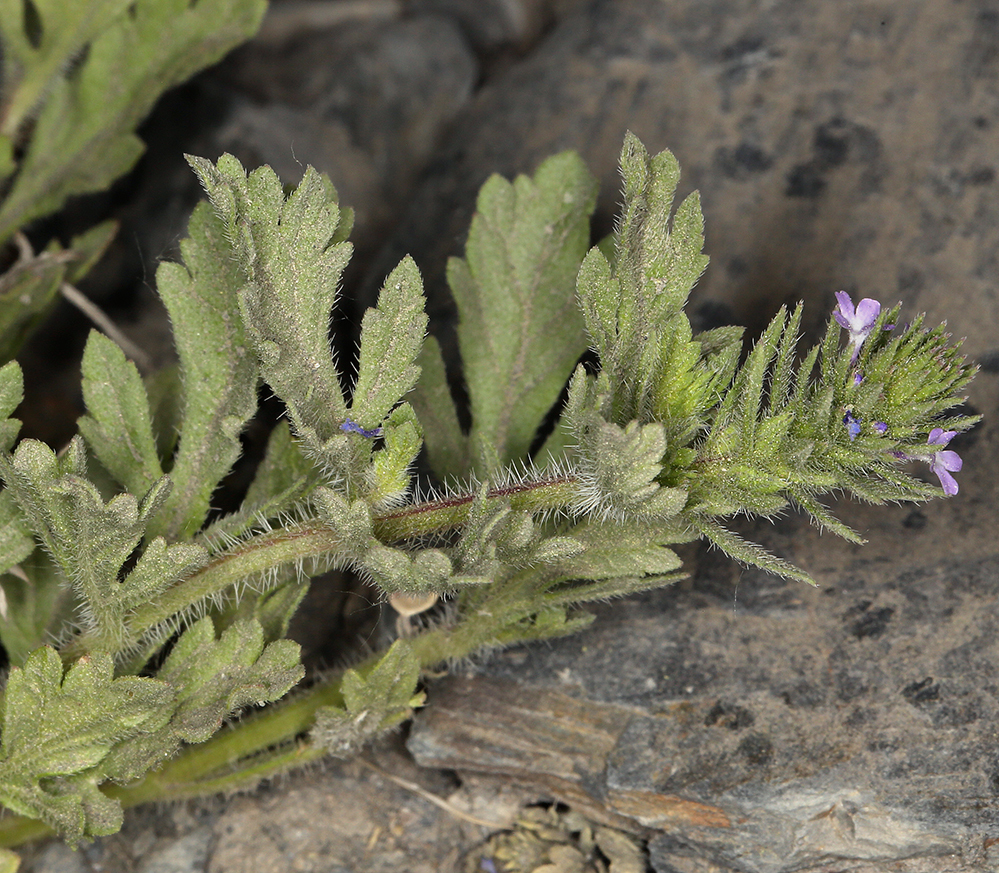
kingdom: Plantae
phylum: Tracheophyta
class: Magnoliopsida
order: Lamiales
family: Verbenaceae
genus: Verbena
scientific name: Verbena bracteata
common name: Bracted vervain
